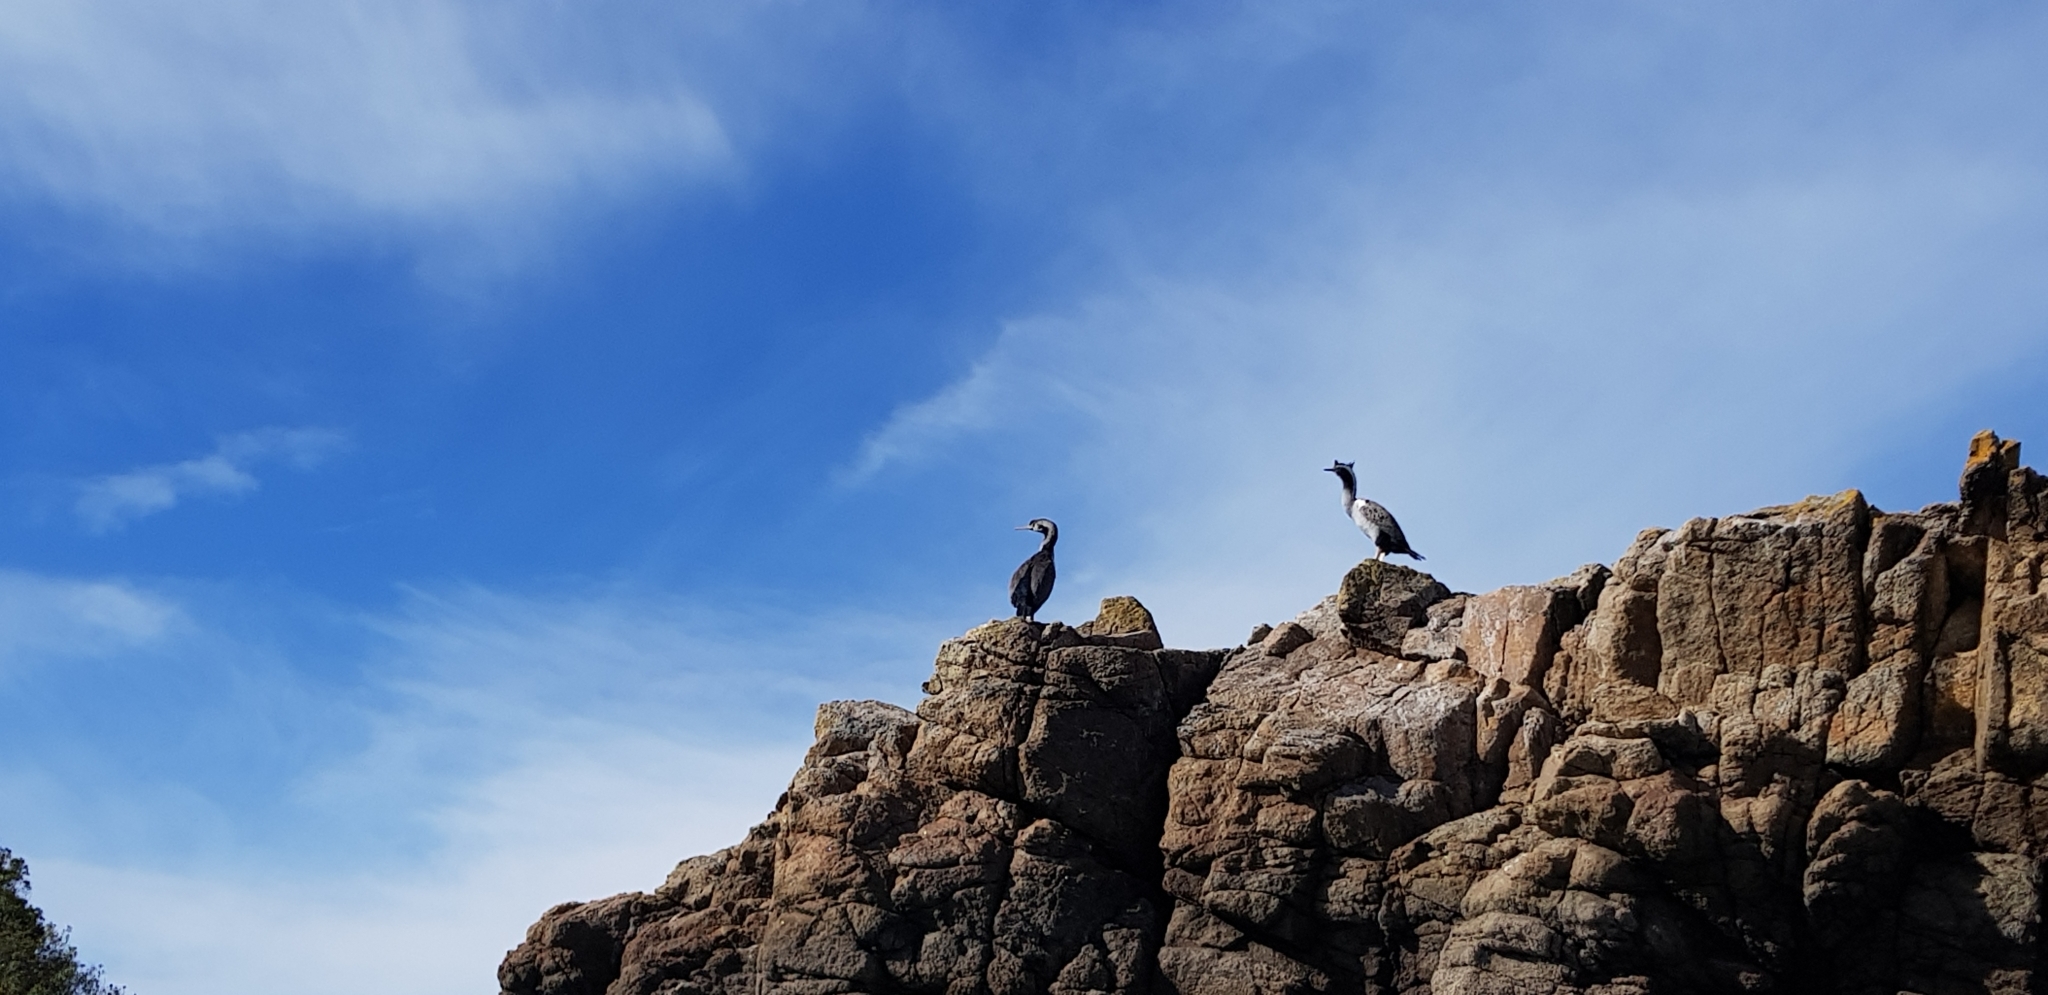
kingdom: Animalia
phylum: Chordata
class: Aves
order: Suliformes
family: Phalacrocoracidae
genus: Phalacrocorax
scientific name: Phalacrocorax punctatus
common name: Spotted shag
